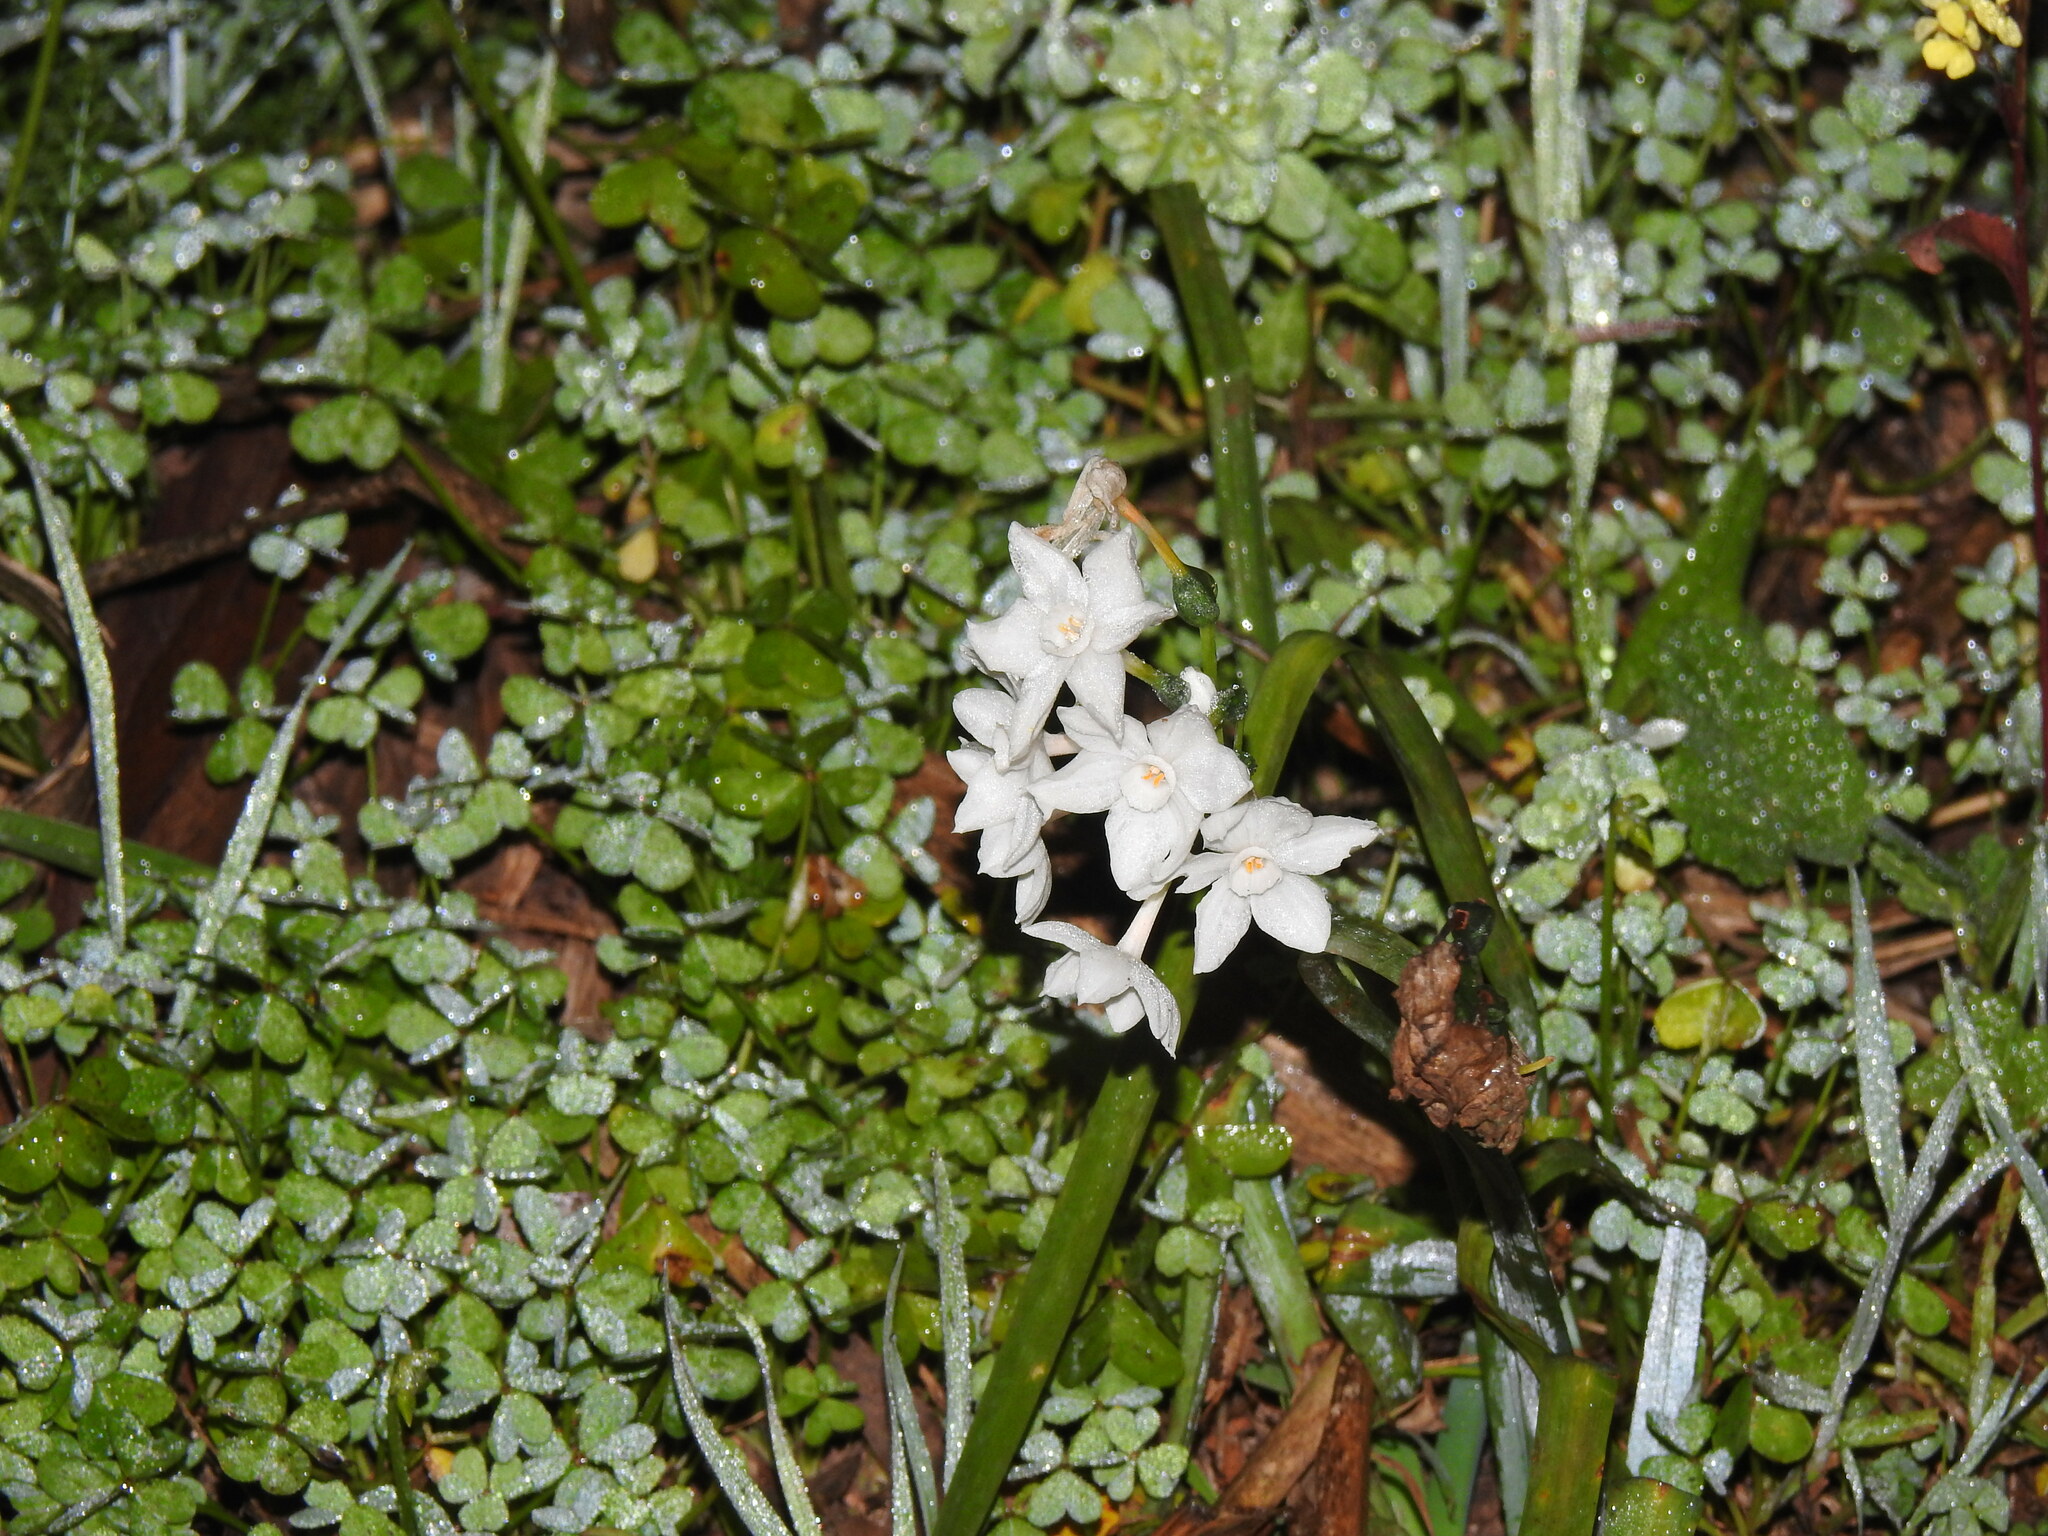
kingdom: Plantae
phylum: Tracheophyta
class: Liliopsida
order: Asparagales
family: Amaryllidaceae
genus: Narcissus
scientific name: Narcissus papyraceus
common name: Paper-white daffodil
